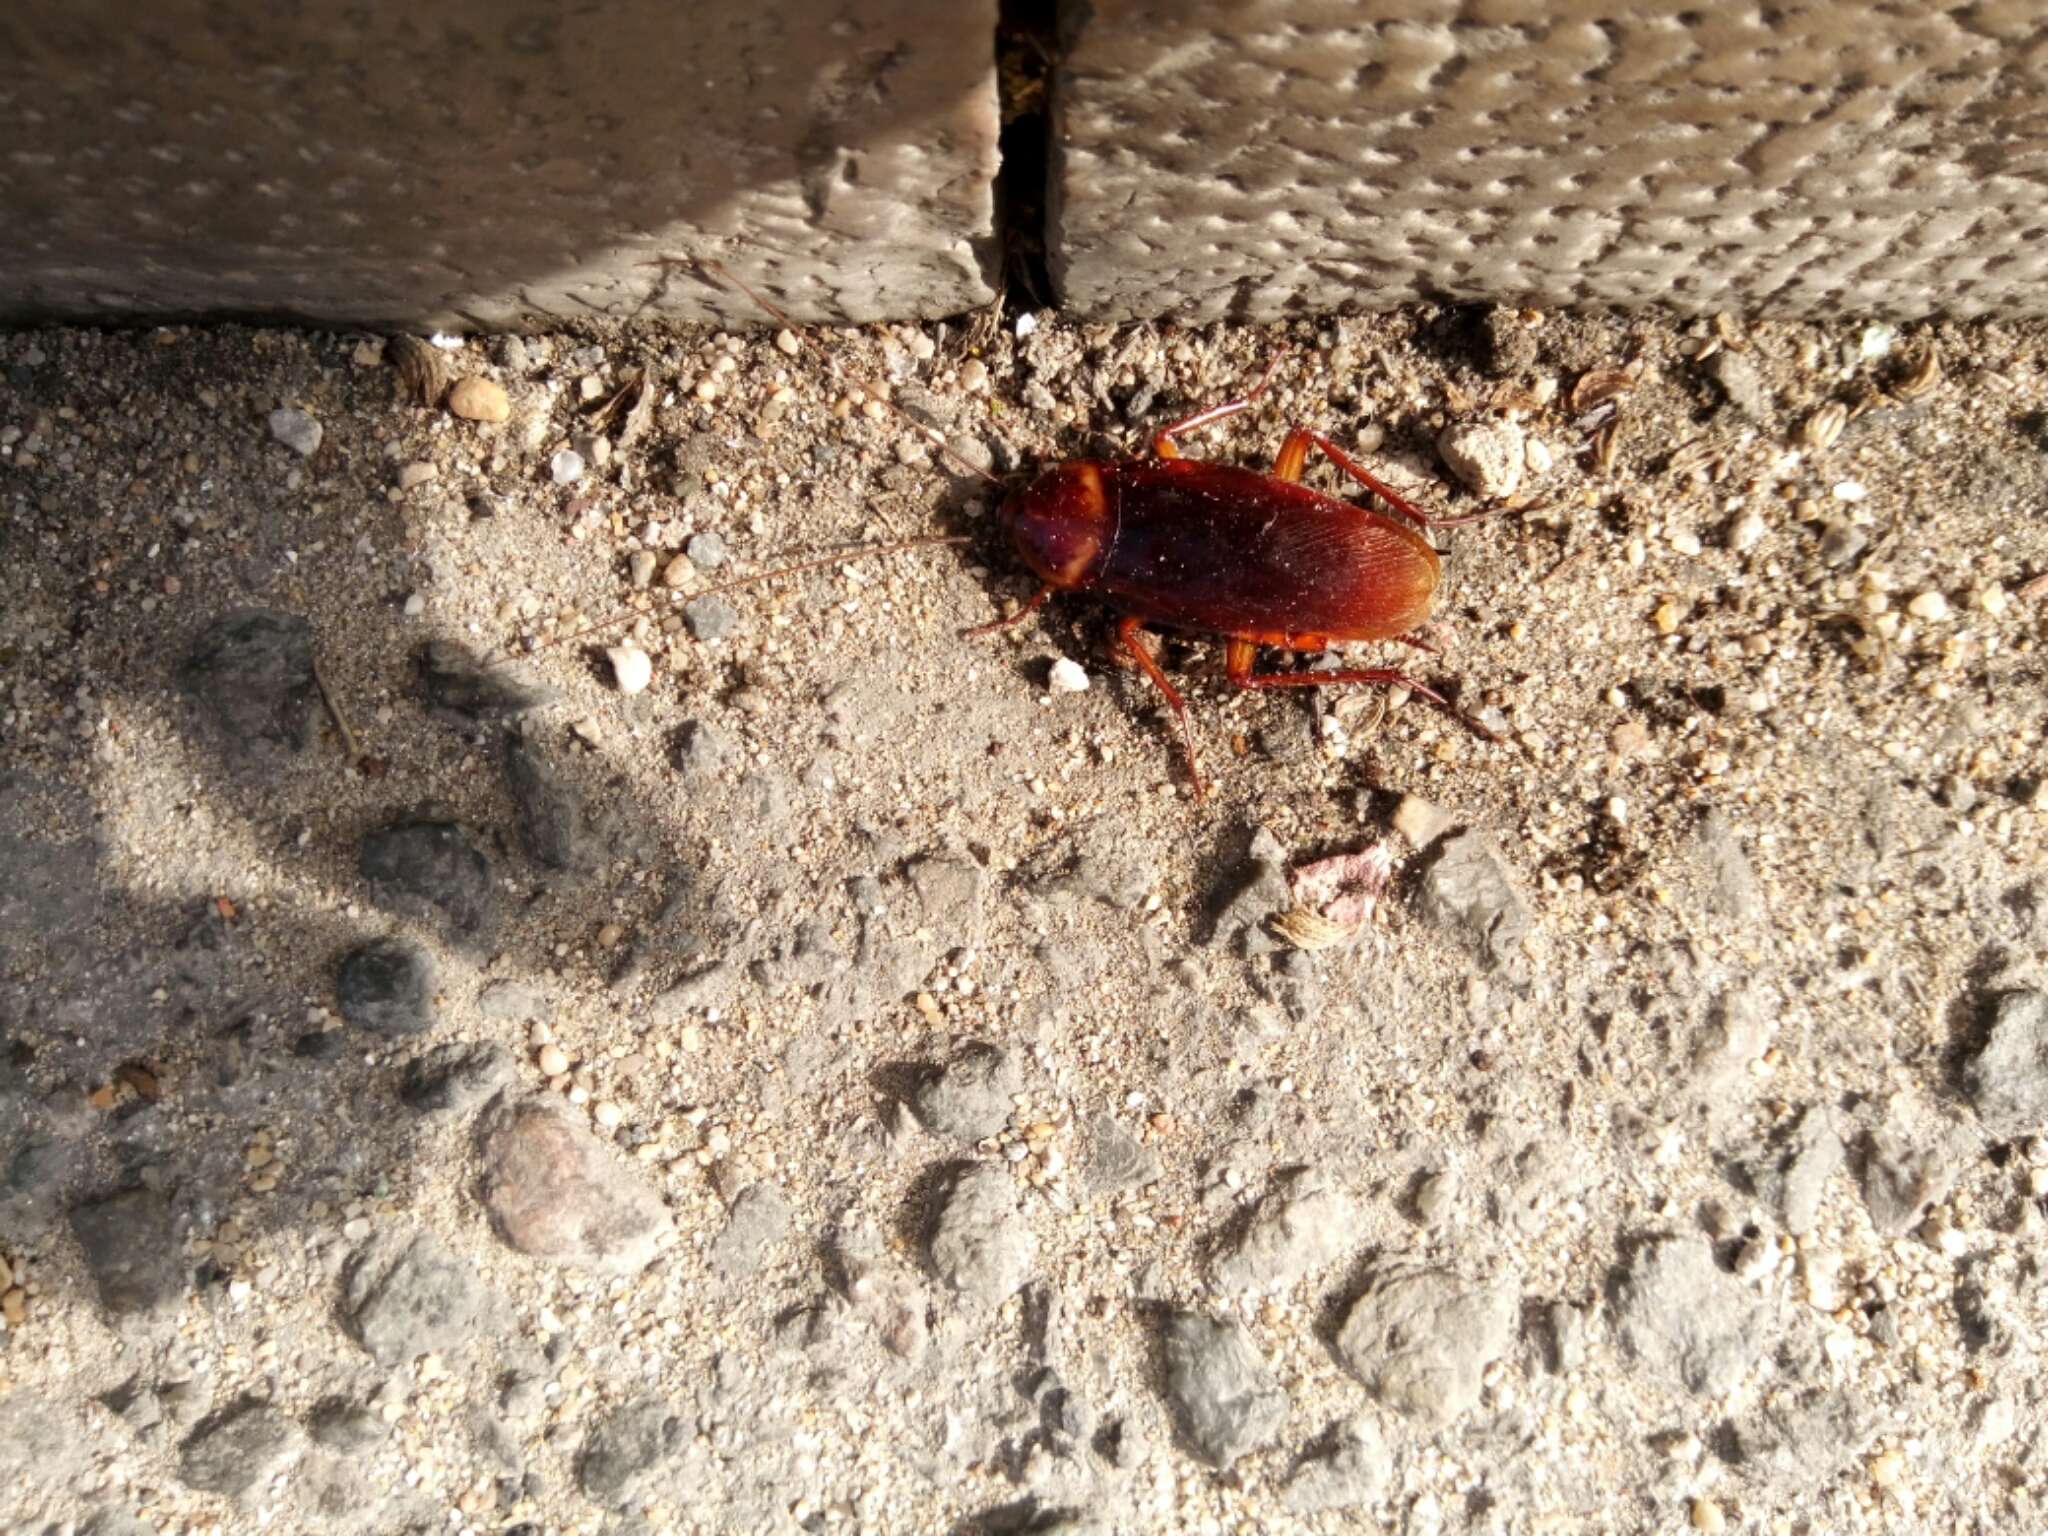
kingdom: Animalia
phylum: Arthropoda
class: Insecta
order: Blattodea
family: Blattidae
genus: Periplaneta
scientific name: Periplaneta americana
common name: American cockroach
